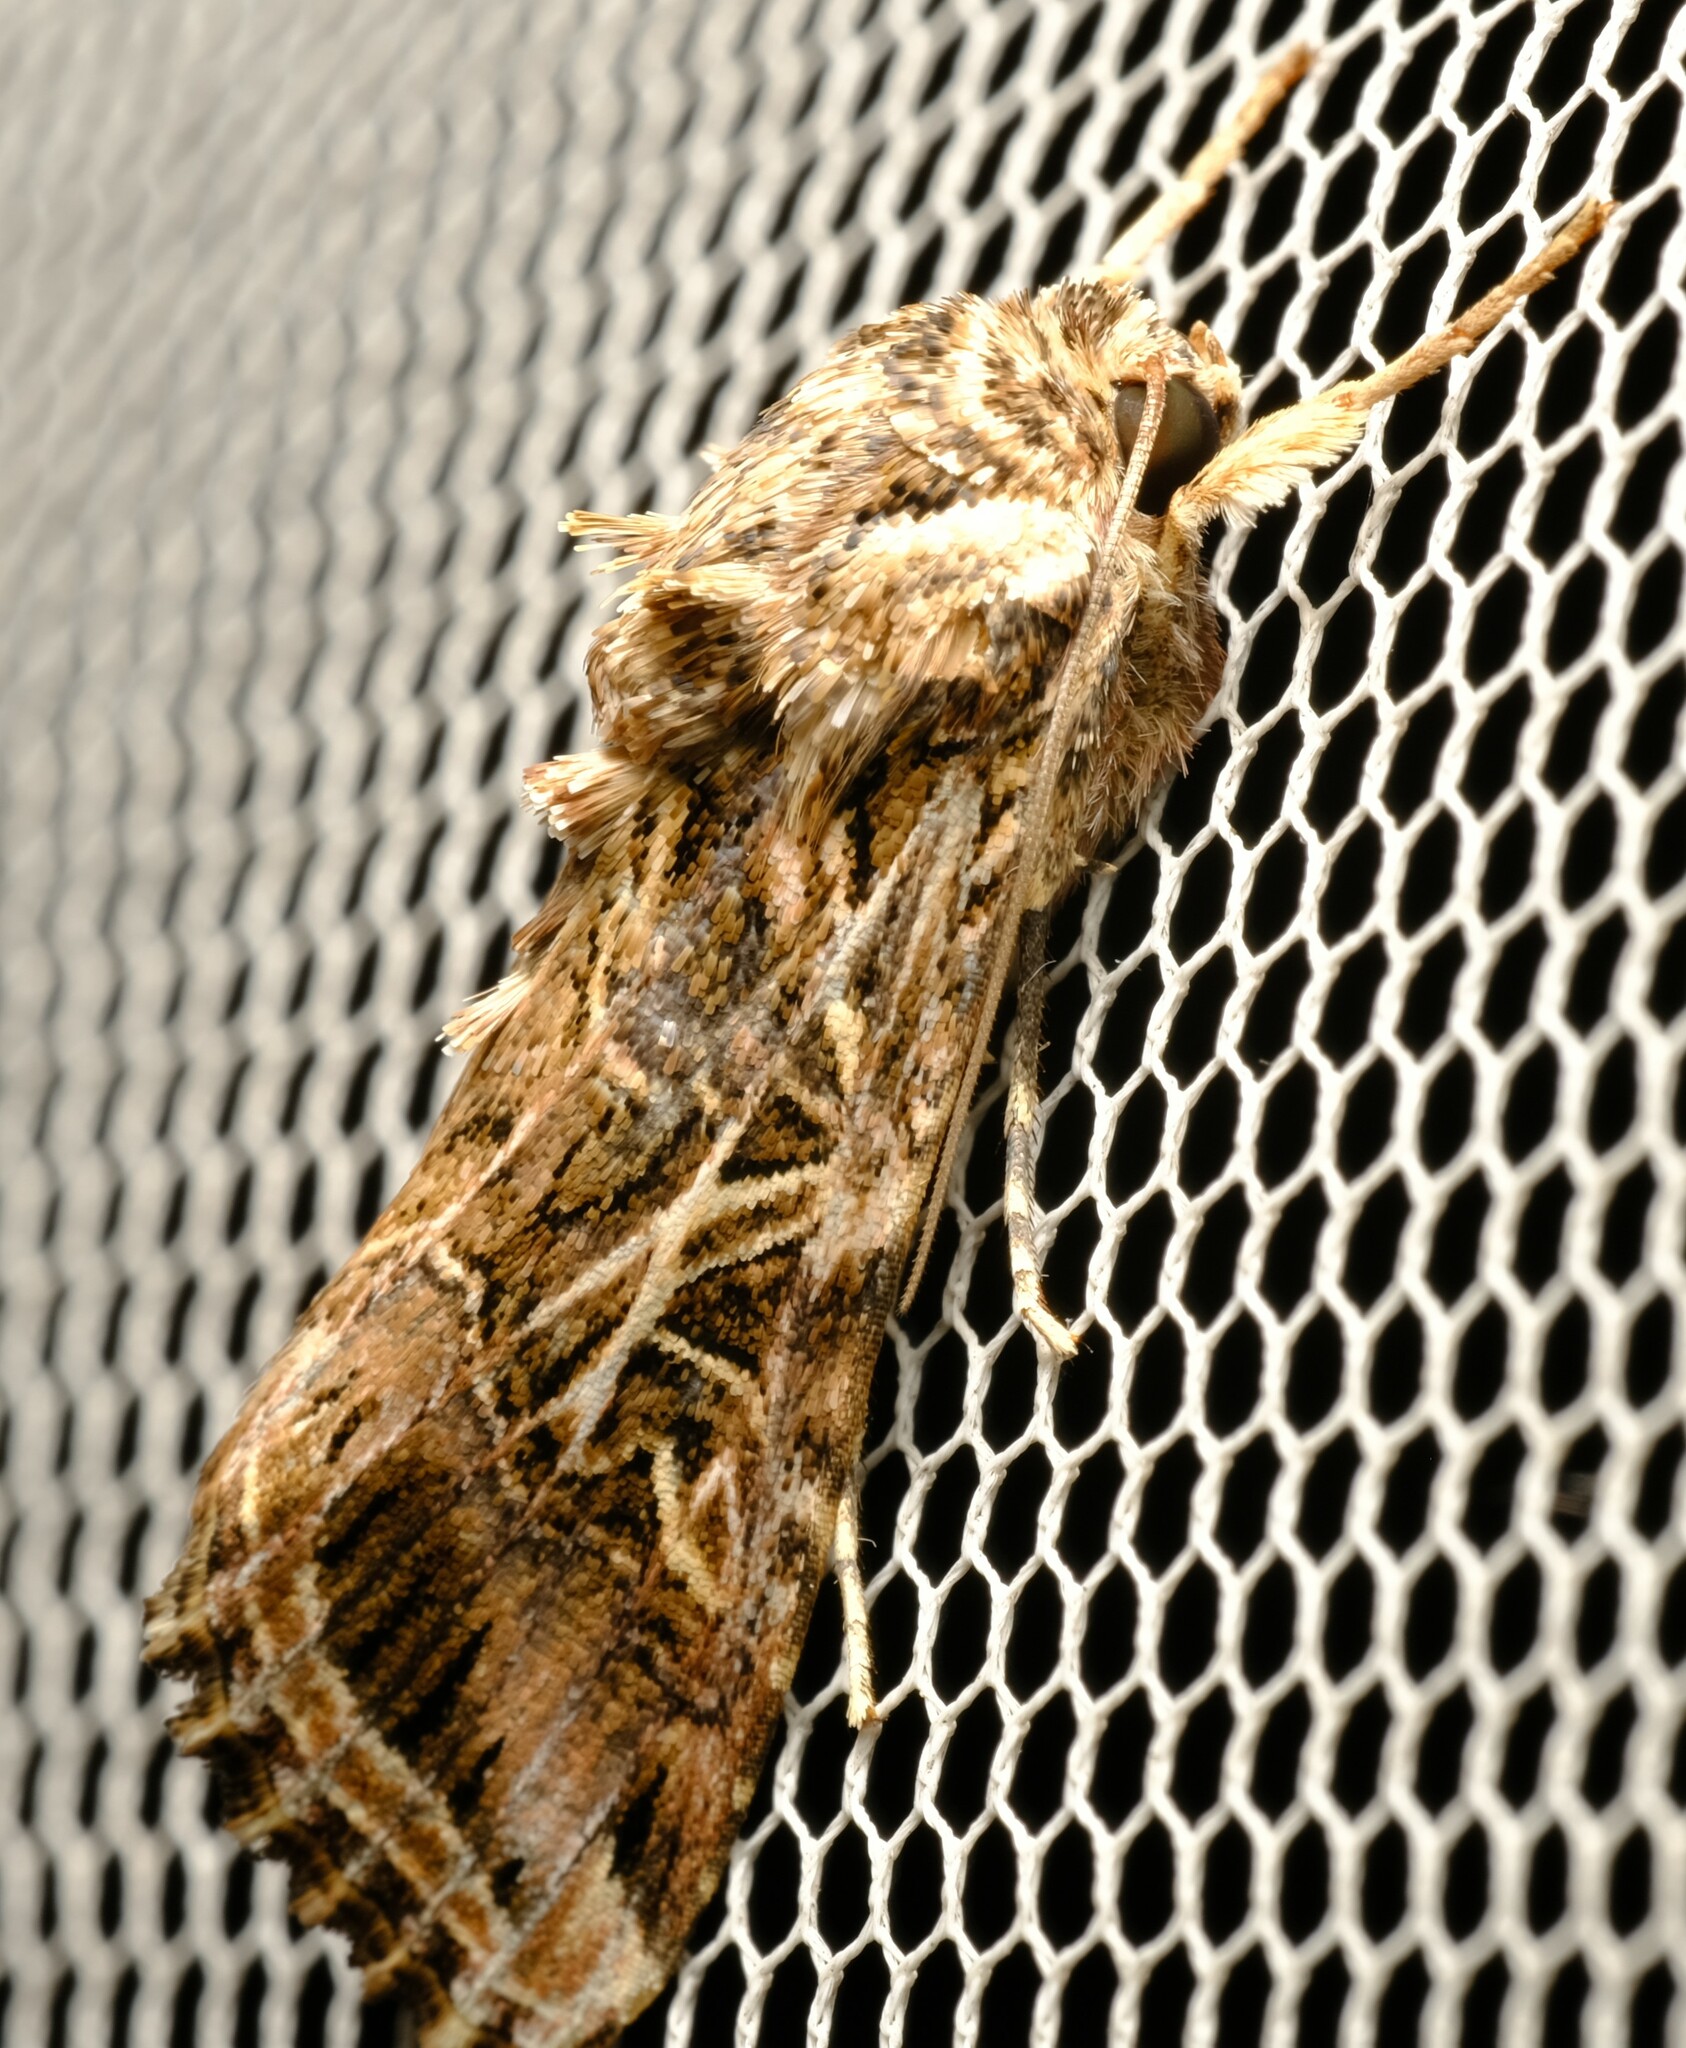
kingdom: Animalia
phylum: Arthropoda
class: Insecta
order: Lepidoptera
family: Noctuidae
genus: Spodoptera
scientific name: Spodoptera litura
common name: Asian cotton leafworm
